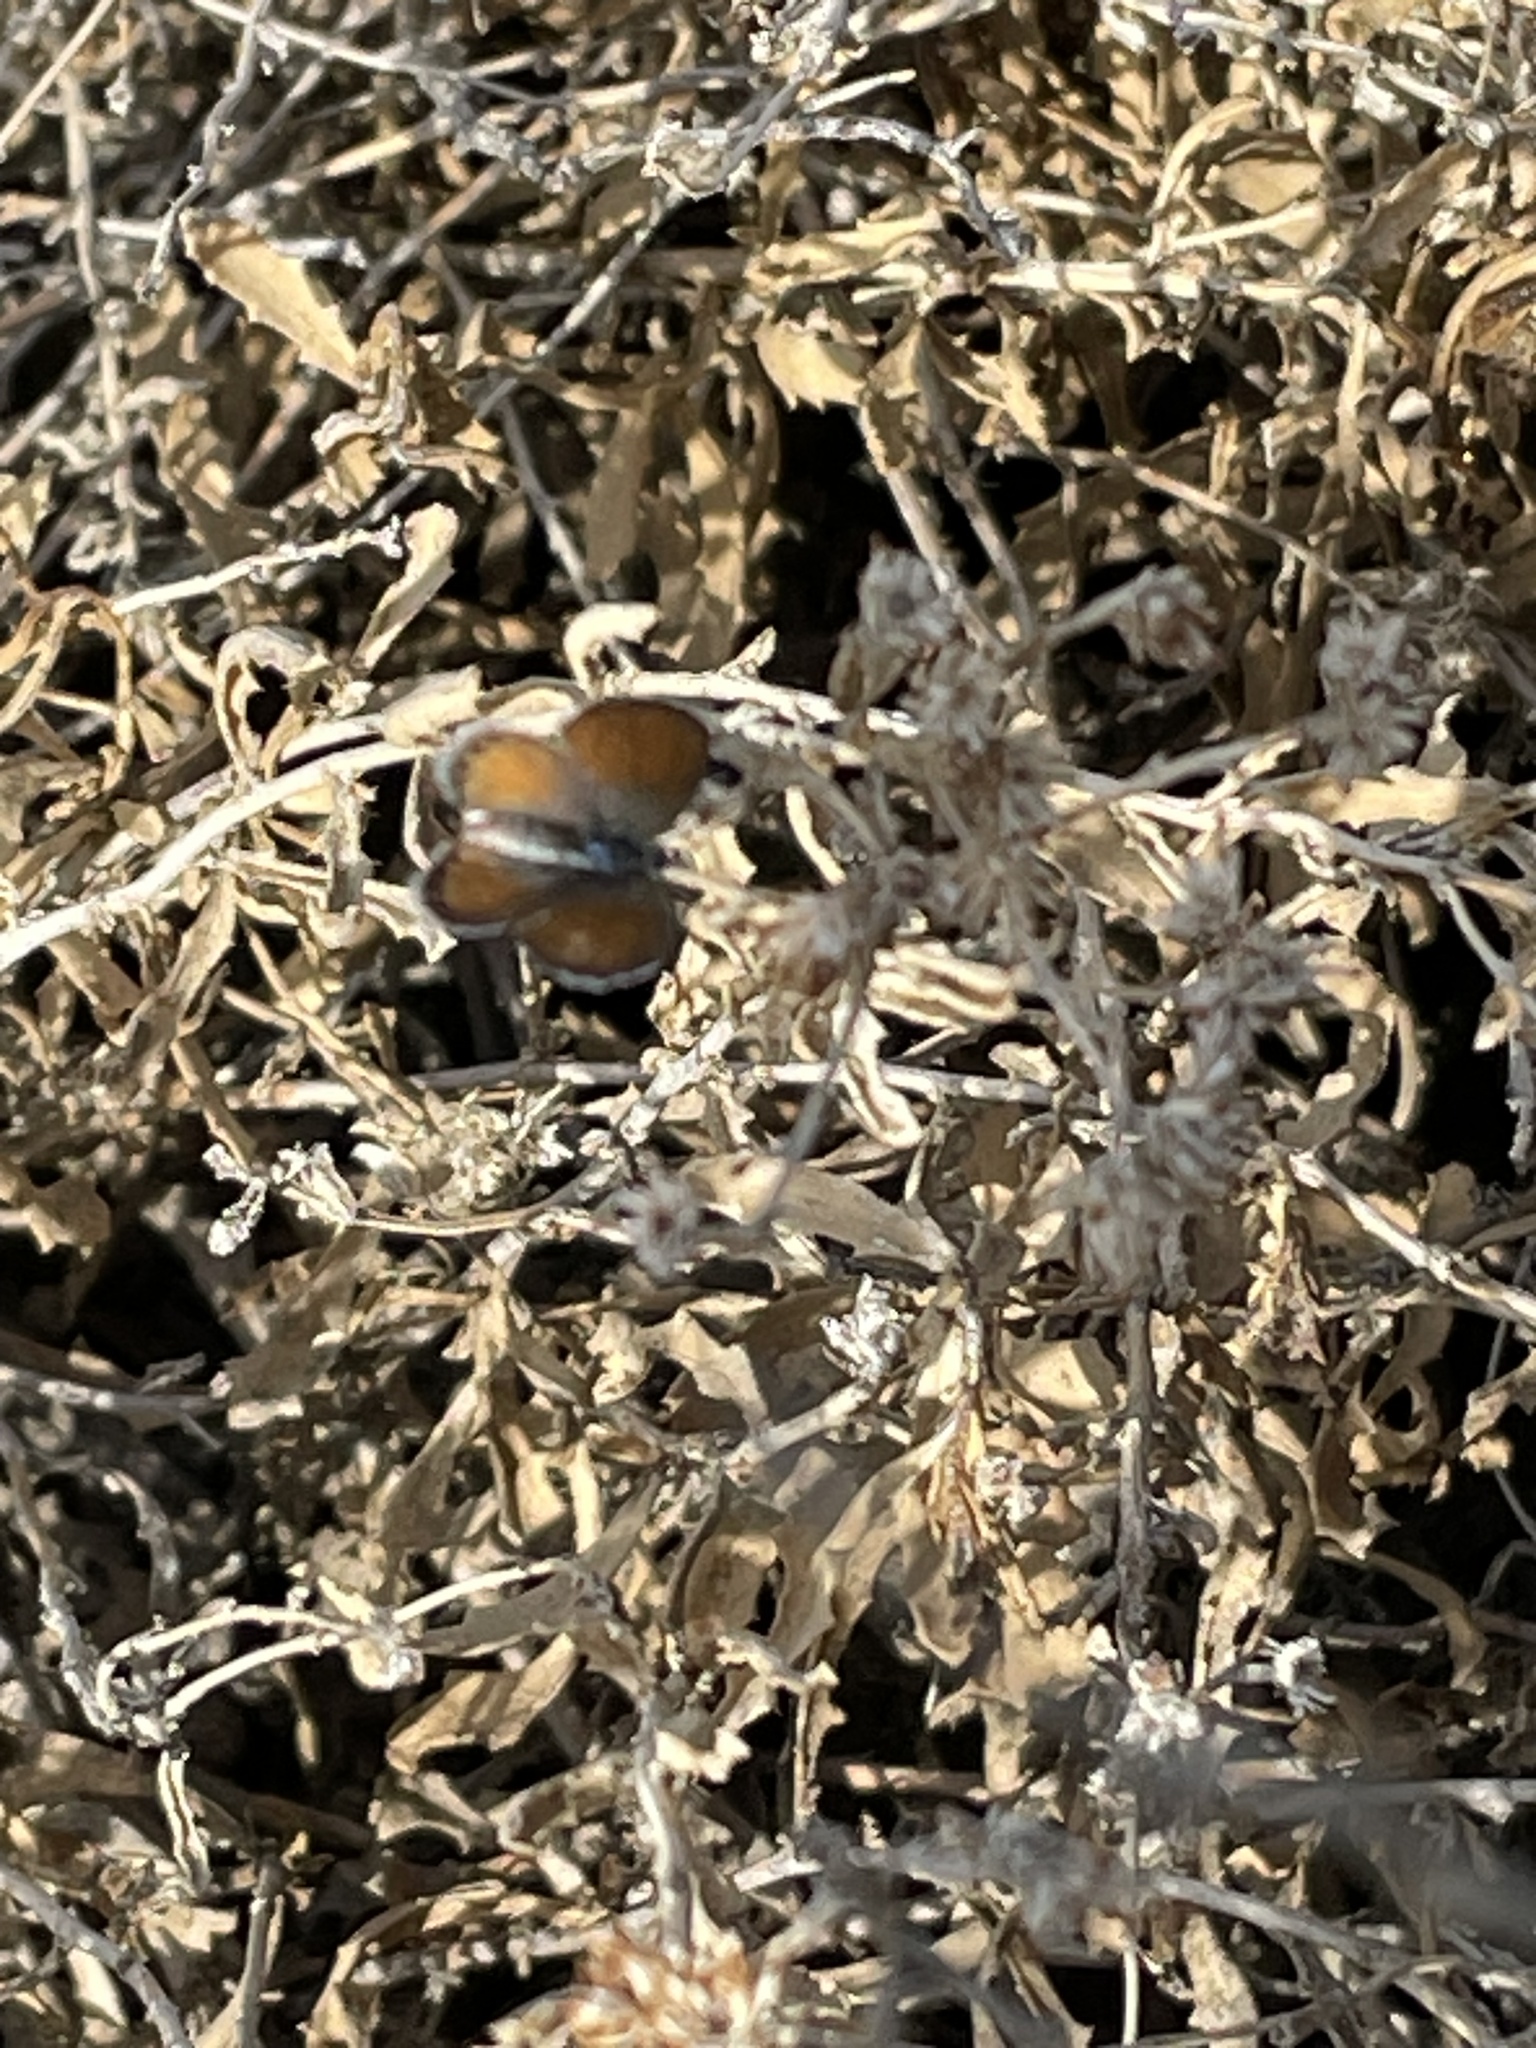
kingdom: Animalia
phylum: Arthropoda
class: Insecta
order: Lepidoptera
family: Lycaenidae
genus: Brephidium
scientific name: Brephidium exilis
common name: Pygmy blue
